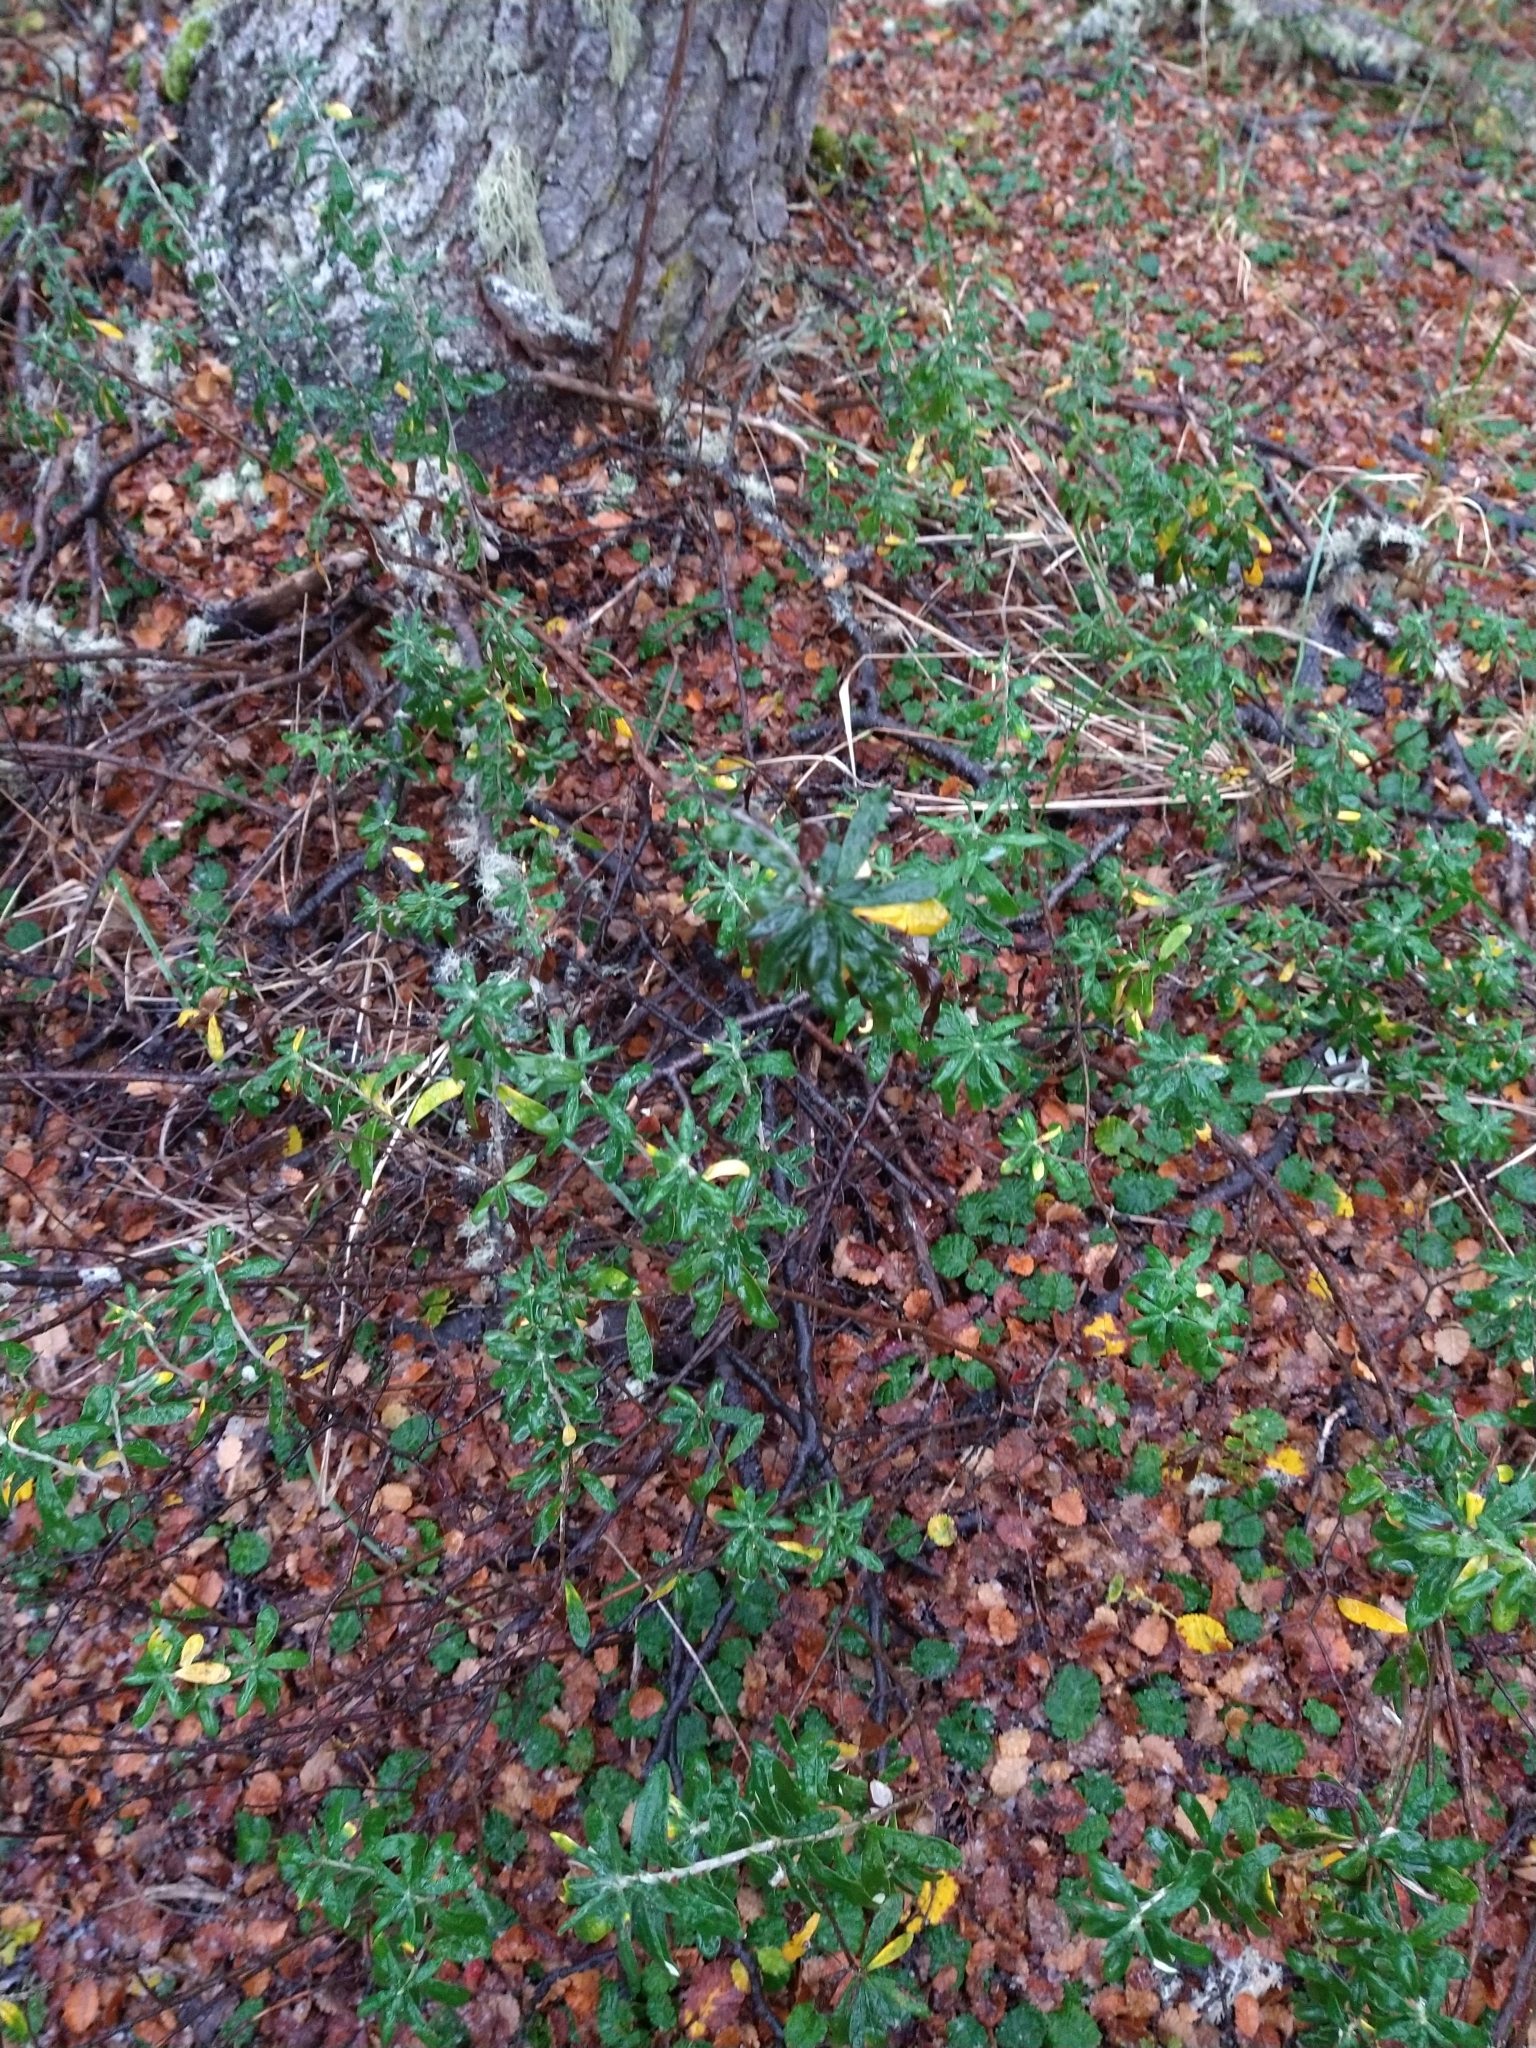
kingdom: Plantae
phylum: Tracheophyta
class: Magnoliopsida
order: Asterales
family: Asteraceae
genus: Chiliotrichum
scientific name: Chiliotrichum diffusum
